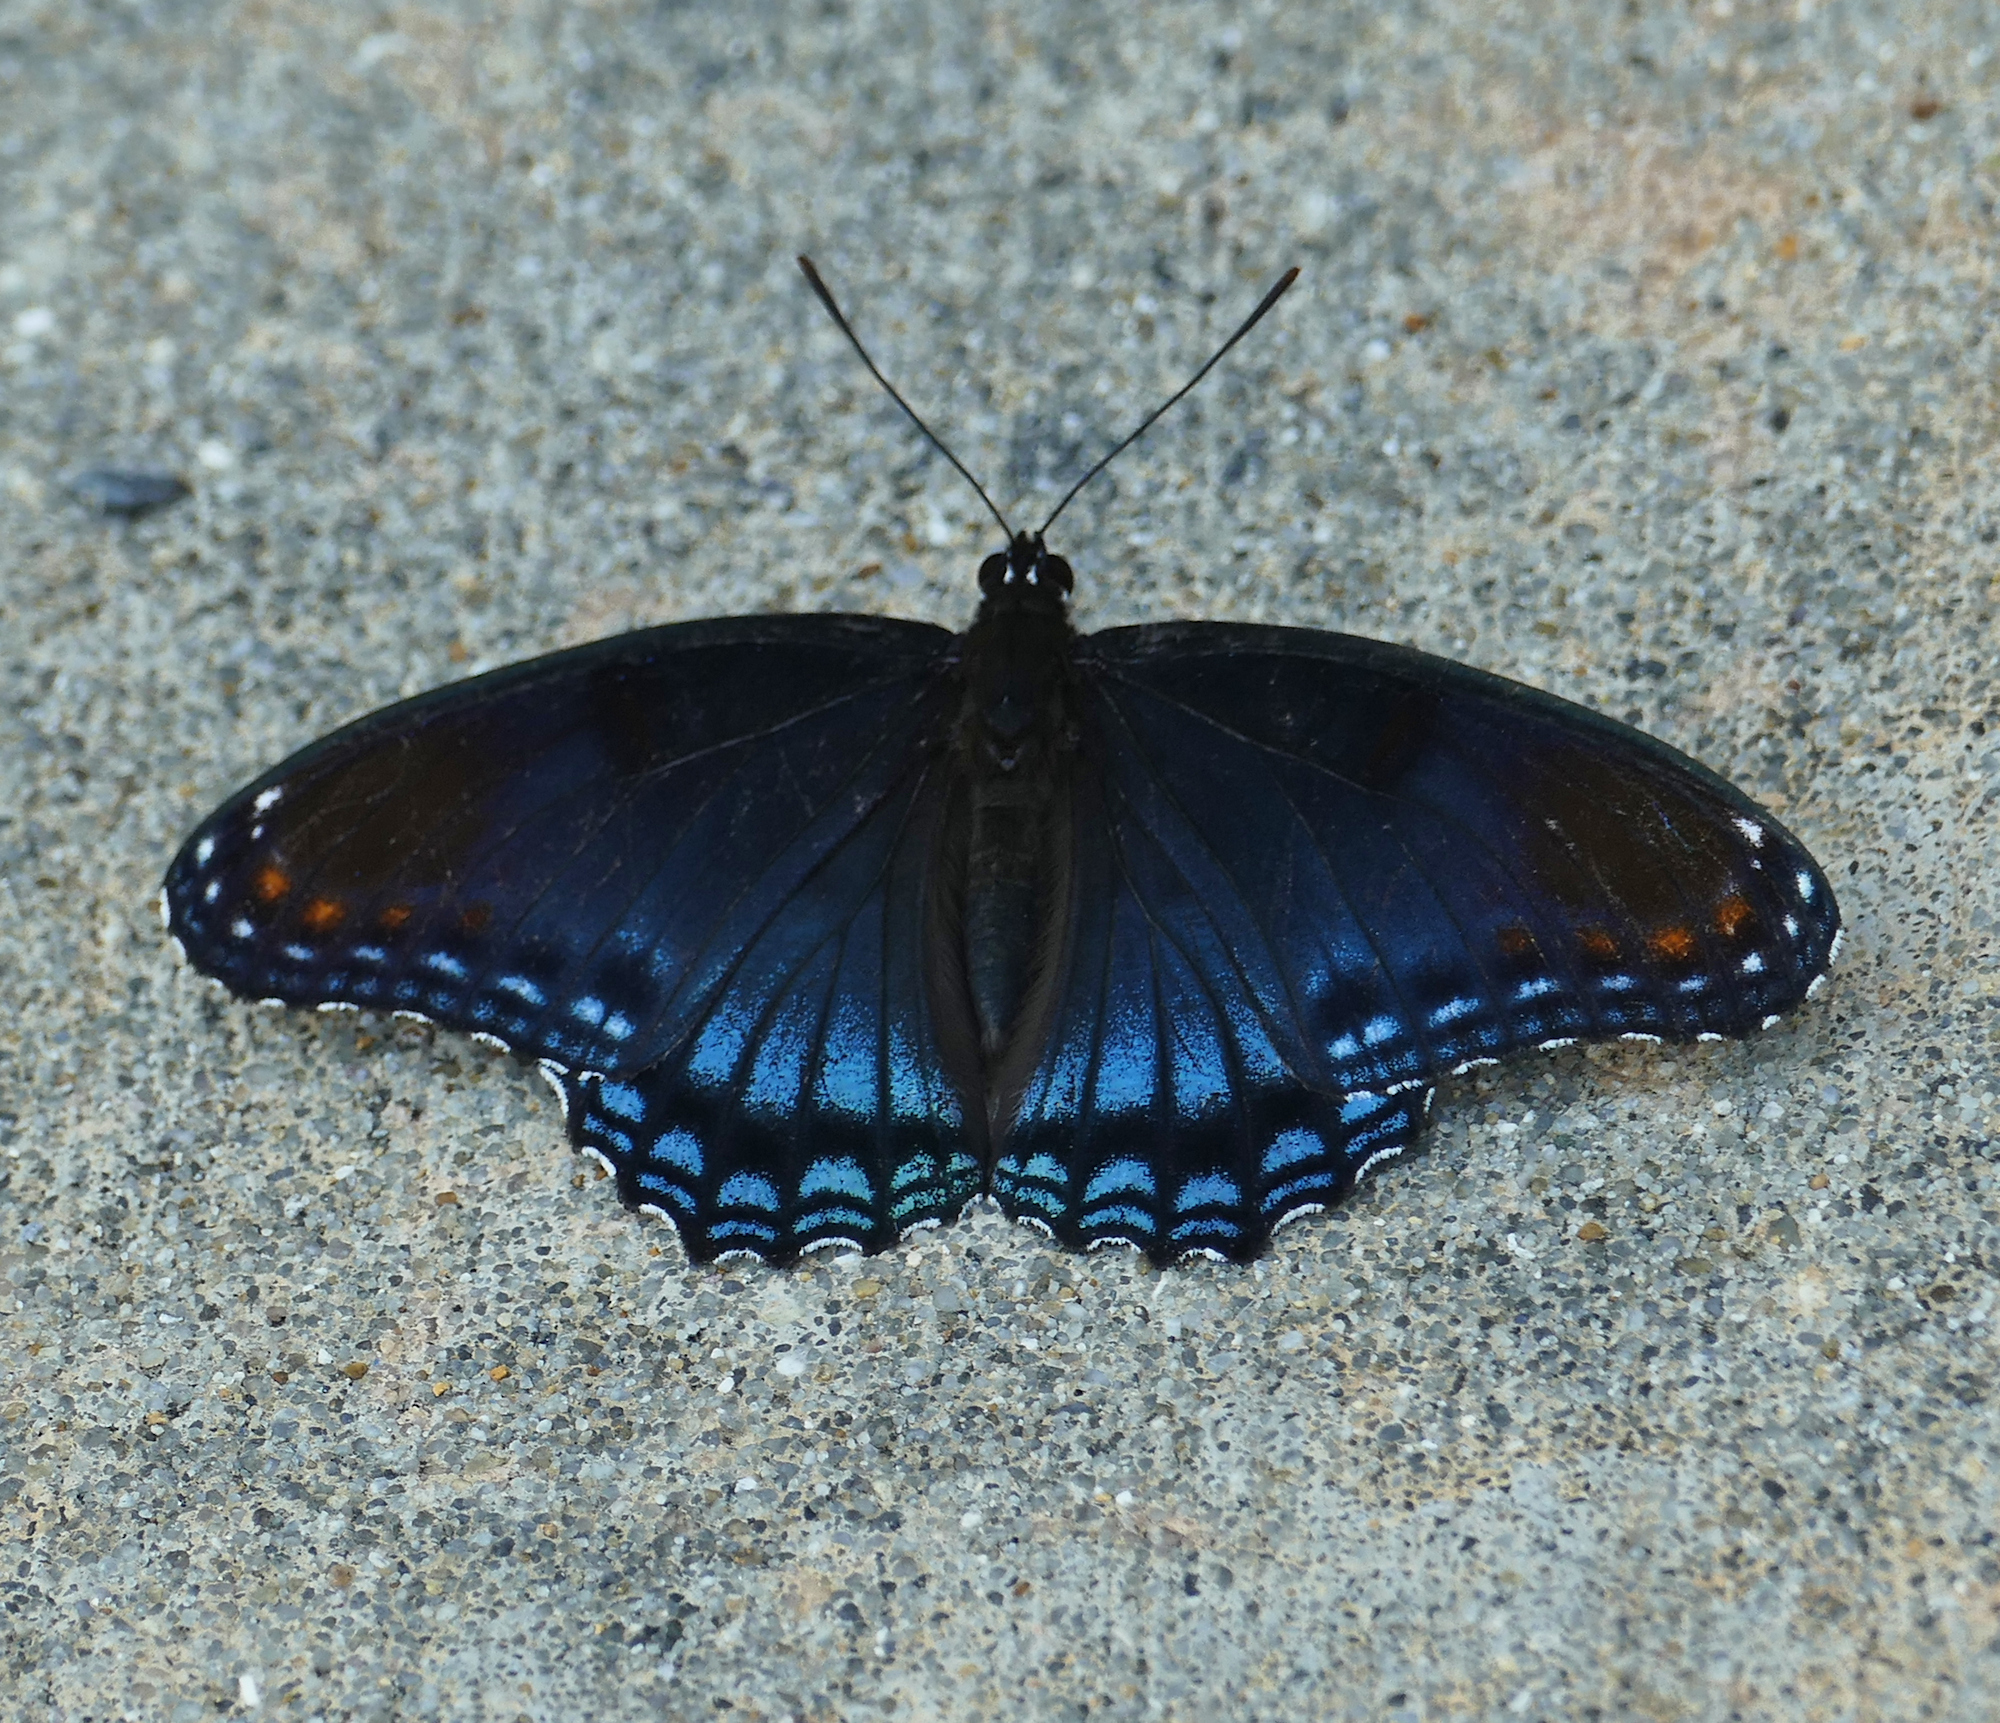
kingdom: Animalia
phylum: Arthropoda
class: Insecta
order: Lepidoptera
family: Nymphalidae
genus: Limenitis
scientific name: Limenitis astyanax
